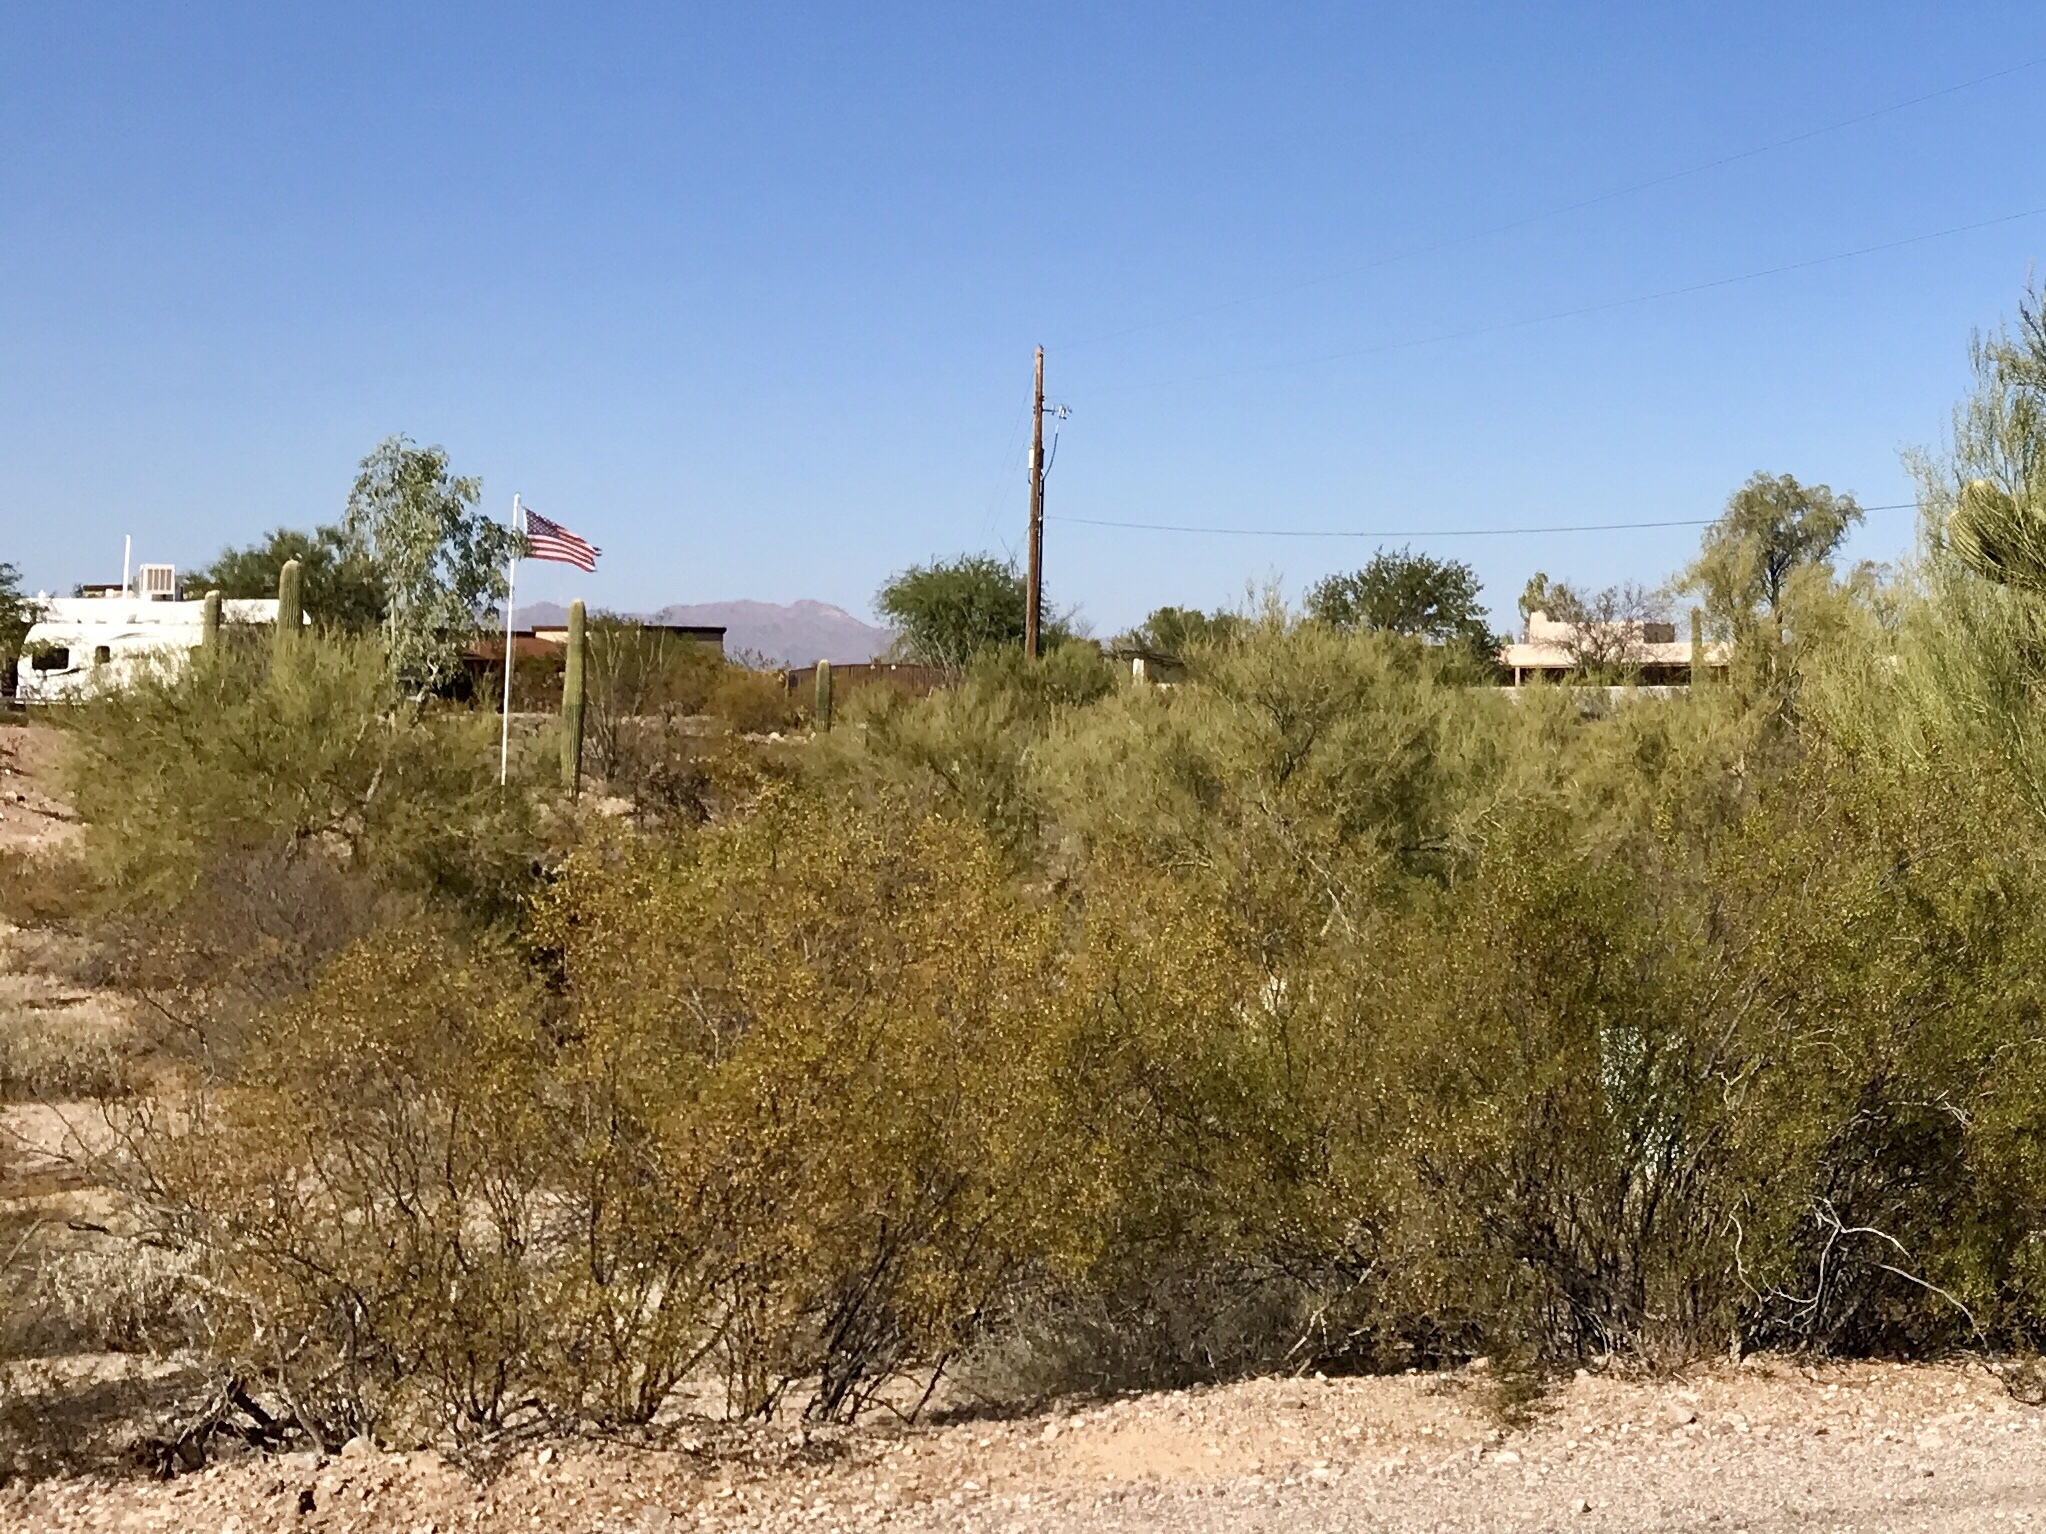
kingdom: Plantae
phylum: Tracheophyta
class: Magnoliopsida
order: Zygophyllales
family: Zygophyllaceae
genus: Larrea
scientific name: Larrea tridentata
